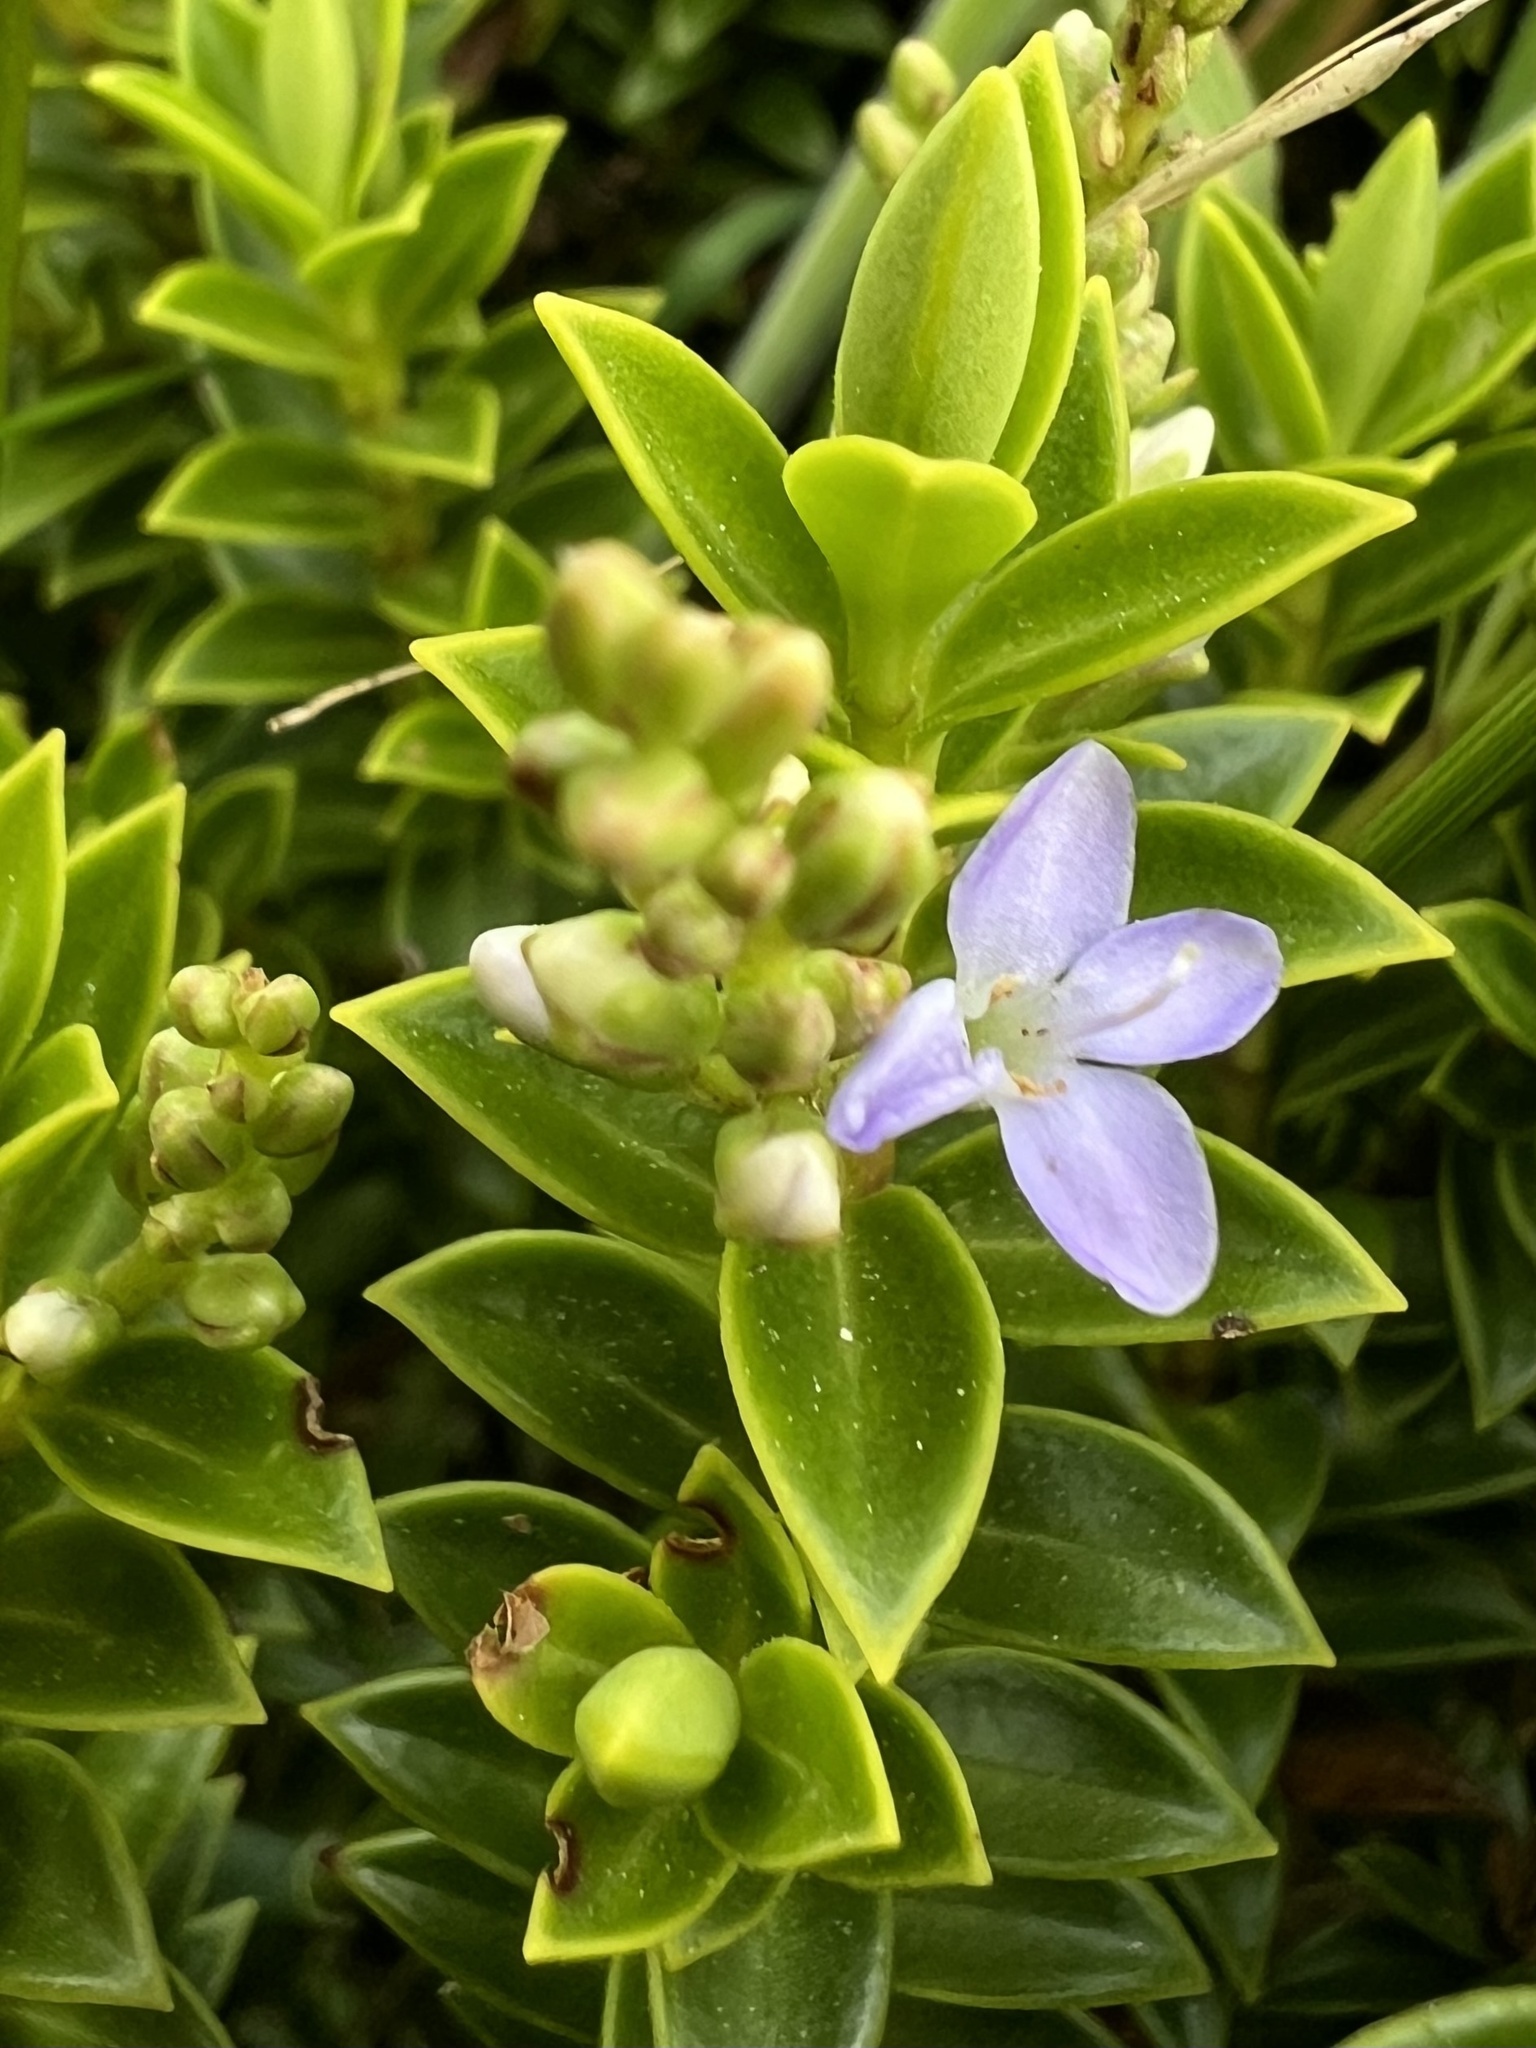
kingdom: Plantae
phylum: Tracheophyta
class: Magnoliopsida
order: Lamiales
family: Plantaginaceae
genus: Veronica
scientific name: Veronica venustula
